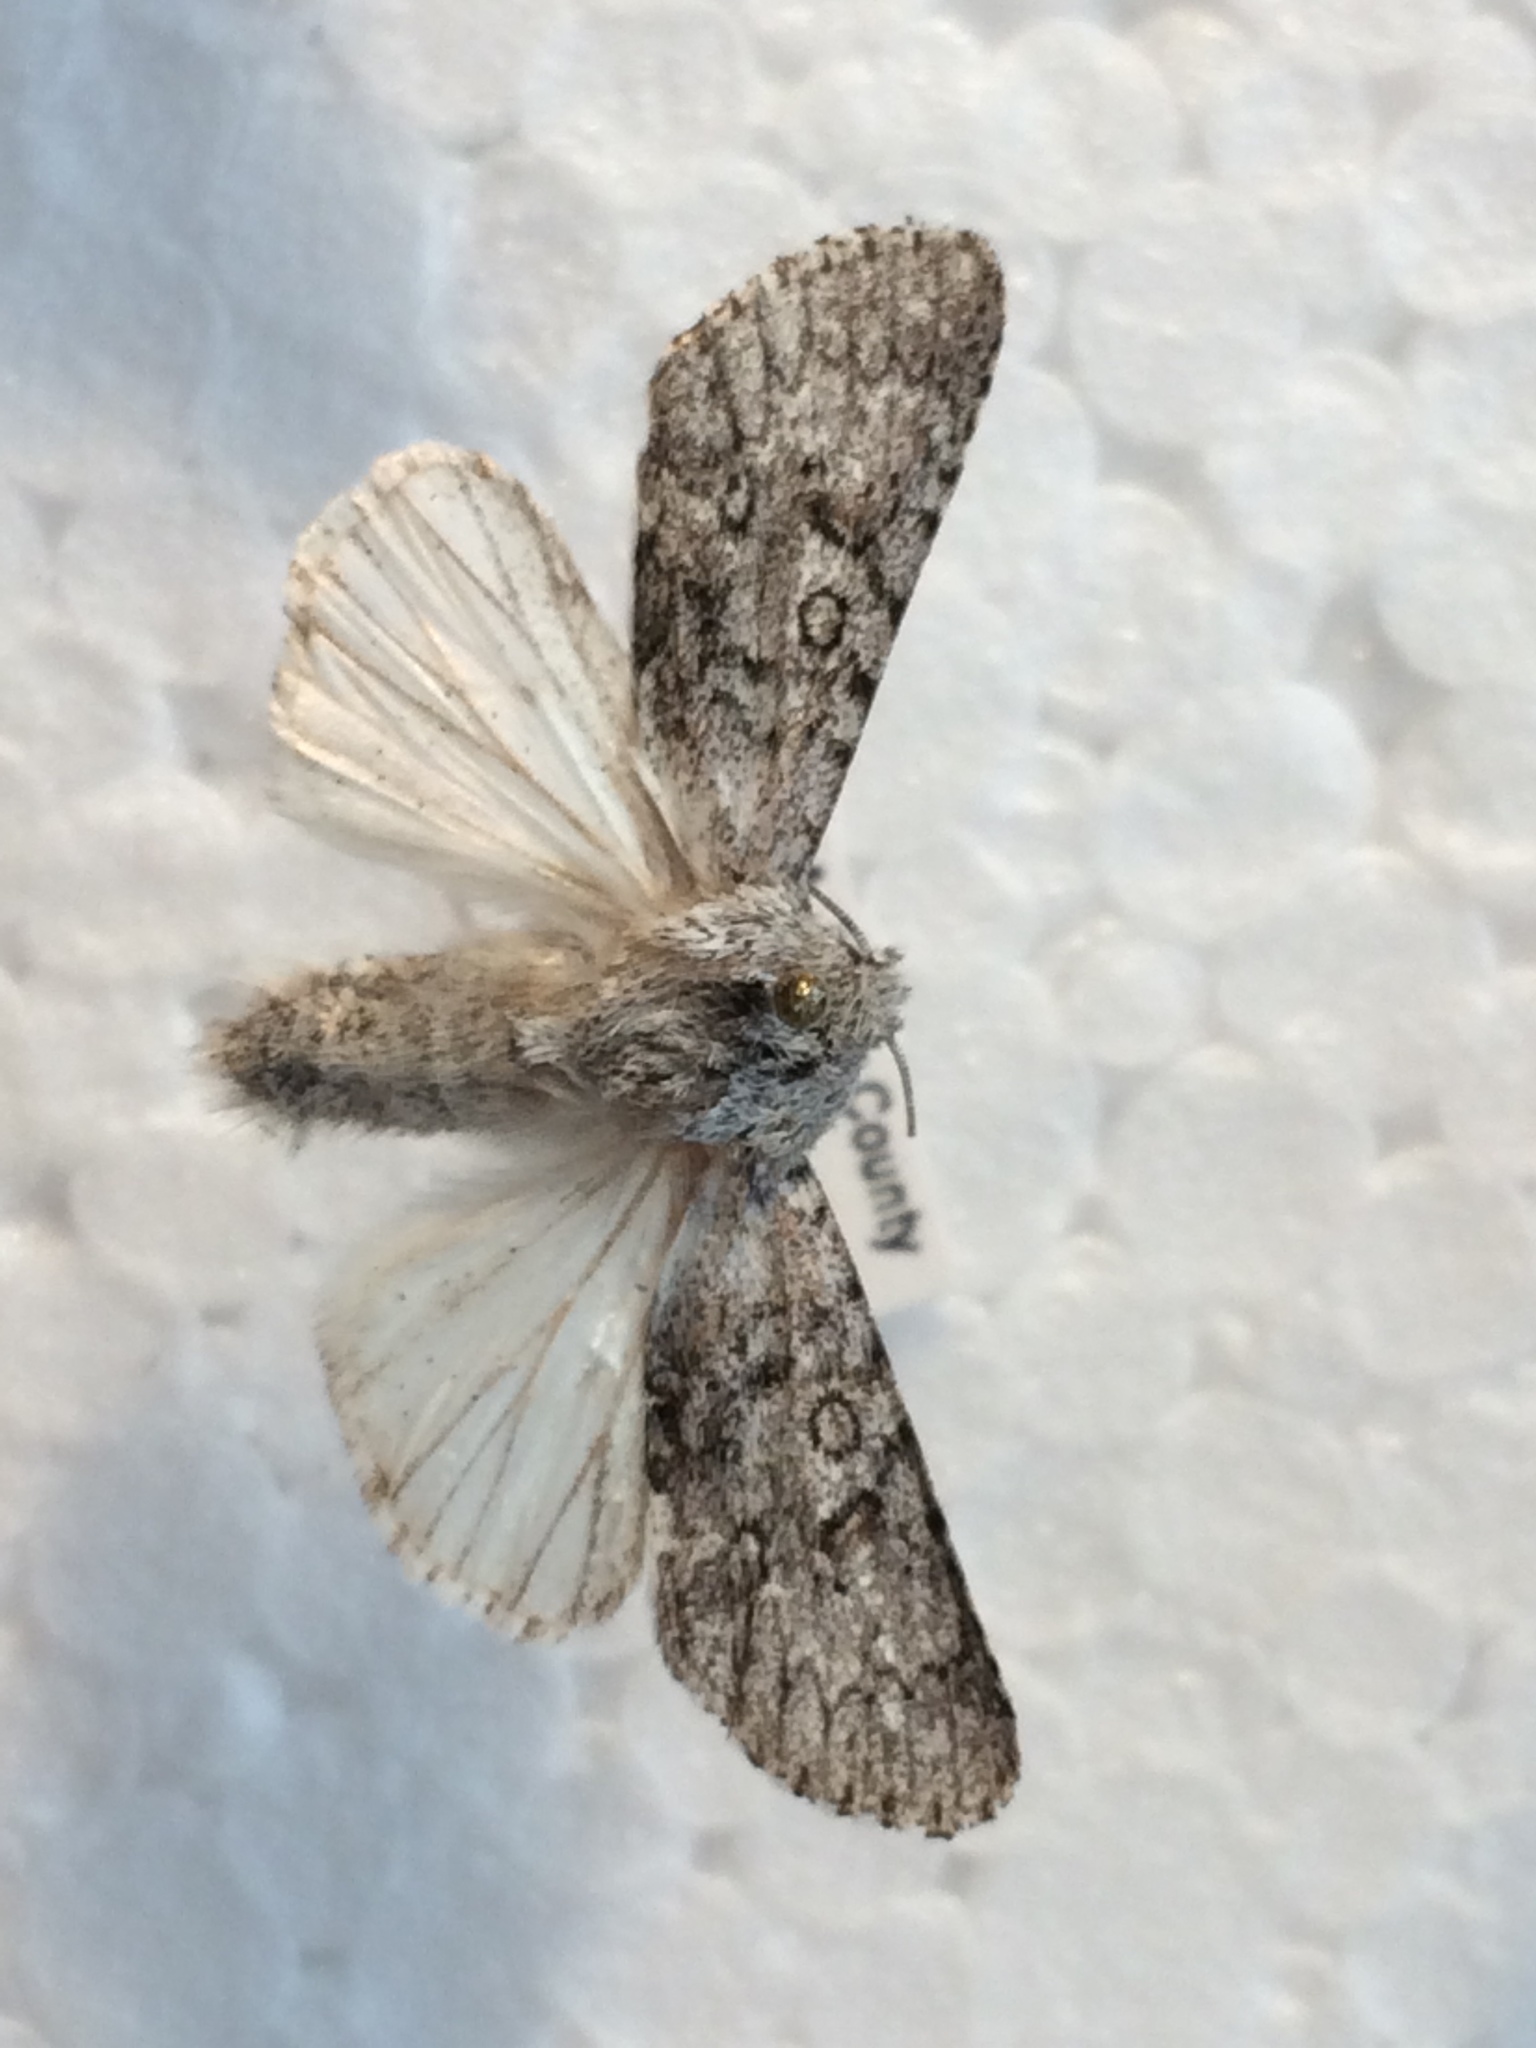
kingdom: Animalia
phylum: Arthropoda
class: Insecta
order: Lepidoptera
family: Noctuidae
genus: Acronicta
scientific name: Acronicta euphorbiae
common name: Sweet gale moth
